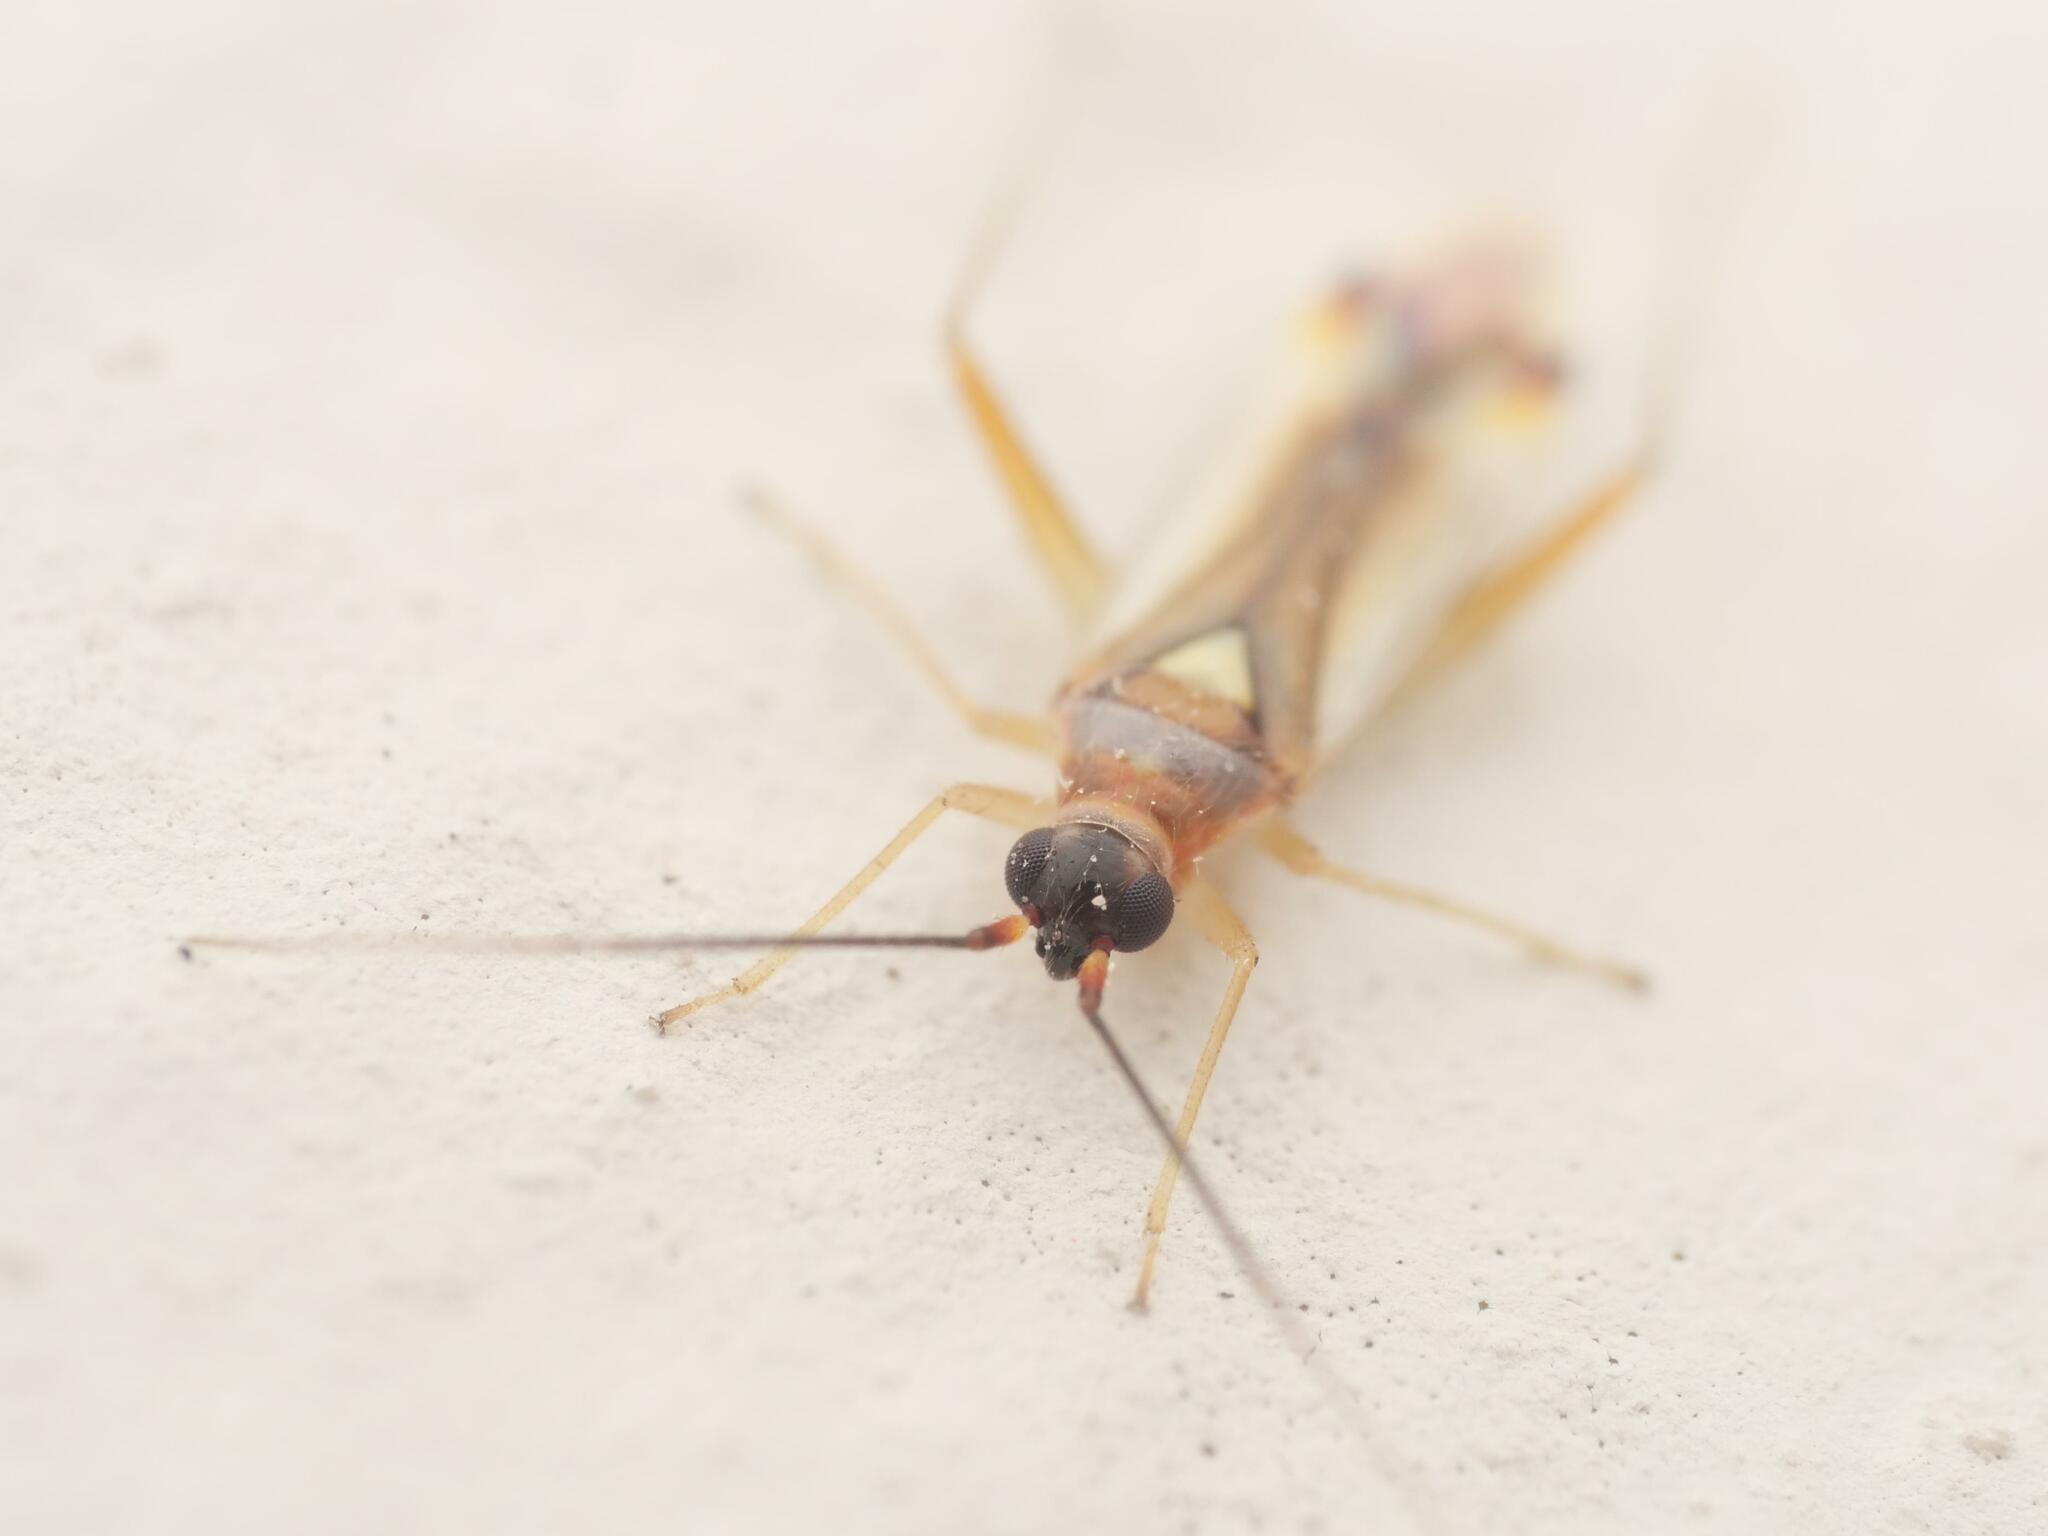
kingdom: Animalia
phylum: Arthropoda
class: Insecta
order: Hemiptera
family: Miridae
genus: Campyloneura
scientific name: Campyloneura virgula
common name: Predatory bug
